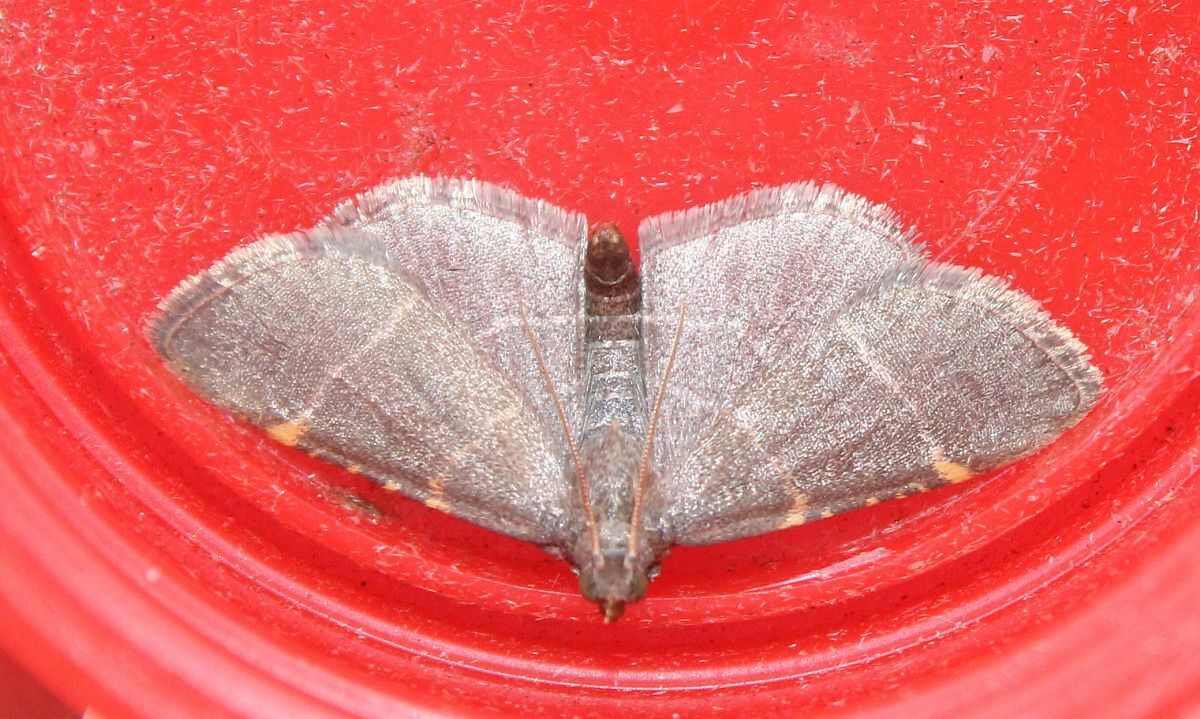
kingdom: Animalia
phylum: Arthropoda
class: Insecta
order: Lepidoptera
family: Pyralidae
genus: Hypsopygia
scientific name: Hypsopygia glaucinalis
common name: Double-striped tabby
